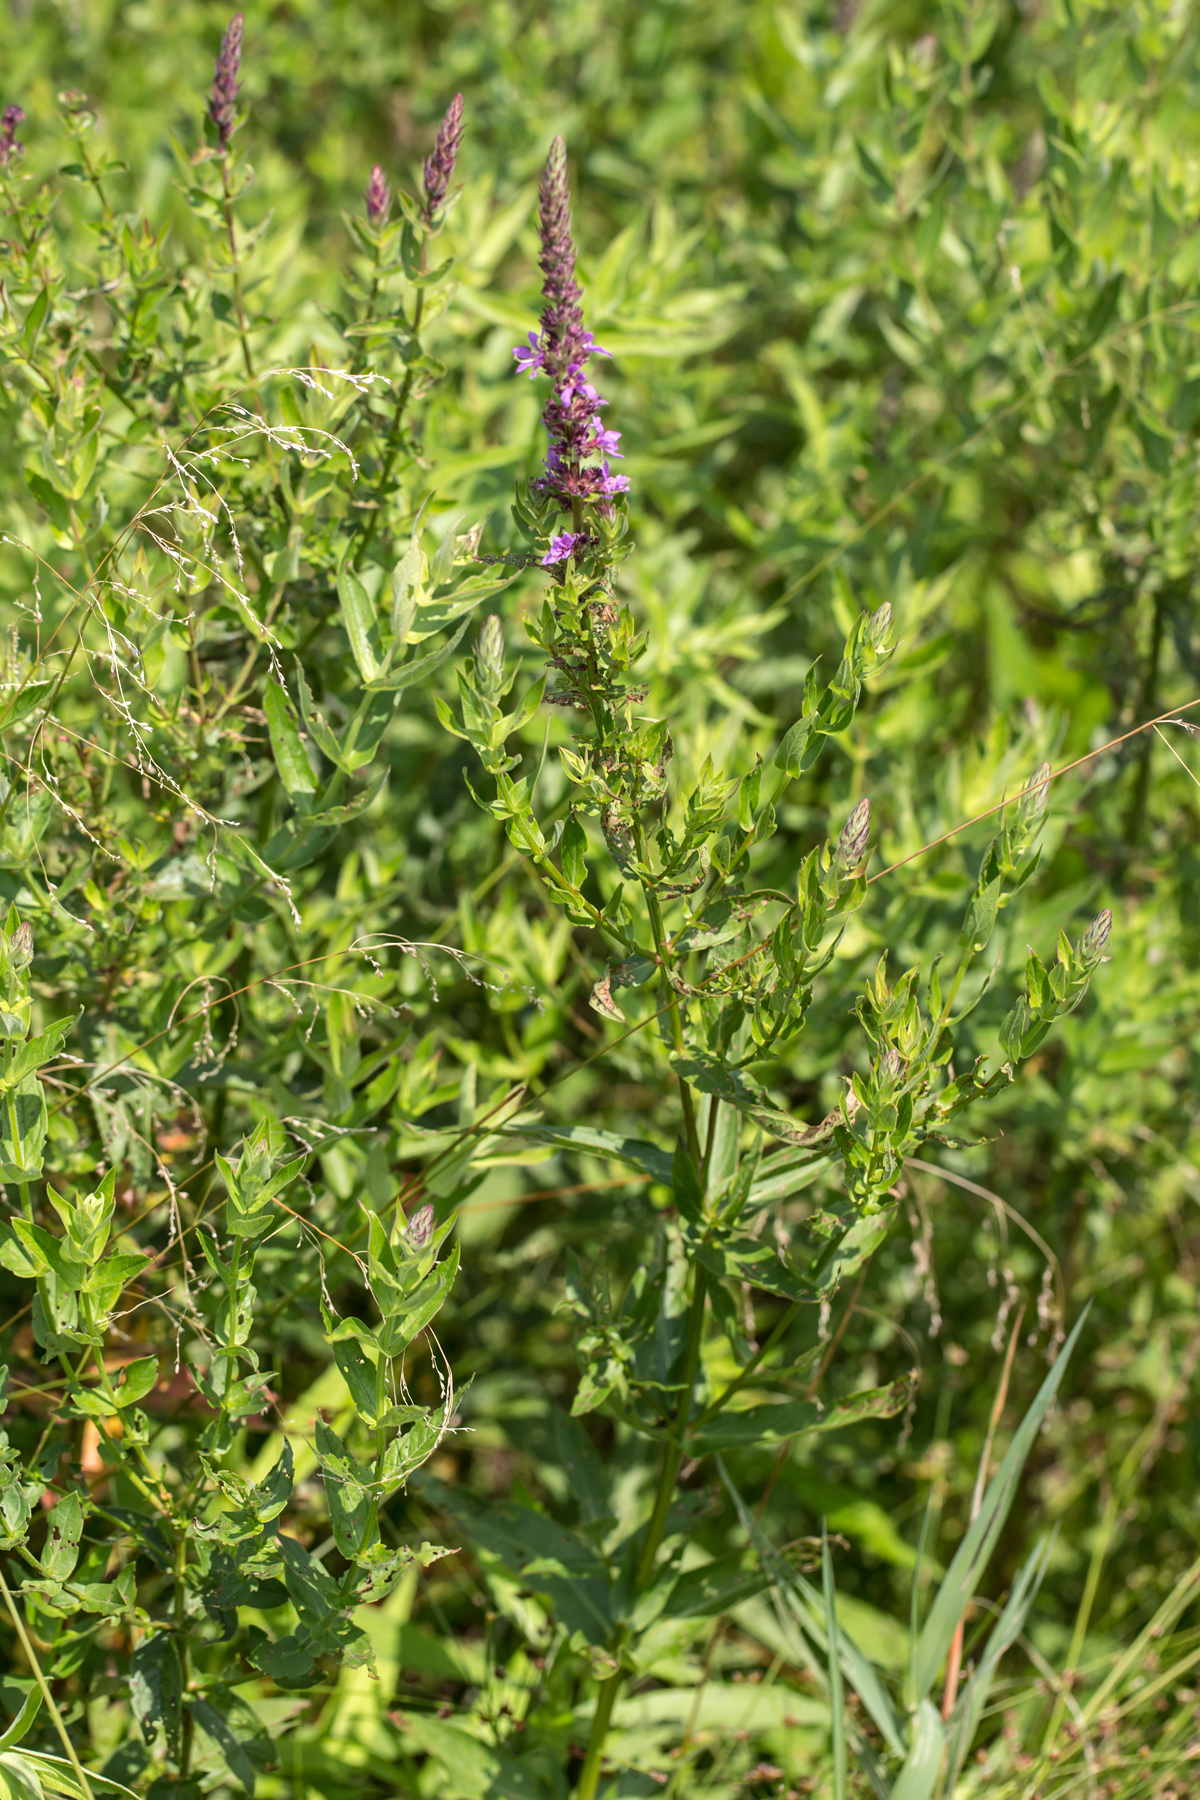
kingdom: Plantae
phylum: Tracheophyta
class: Magnoliopsida
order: Myrtales
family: Lythraceae
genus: Lythrum
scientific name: Lythrum salicaria
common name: Purple loosestrife
